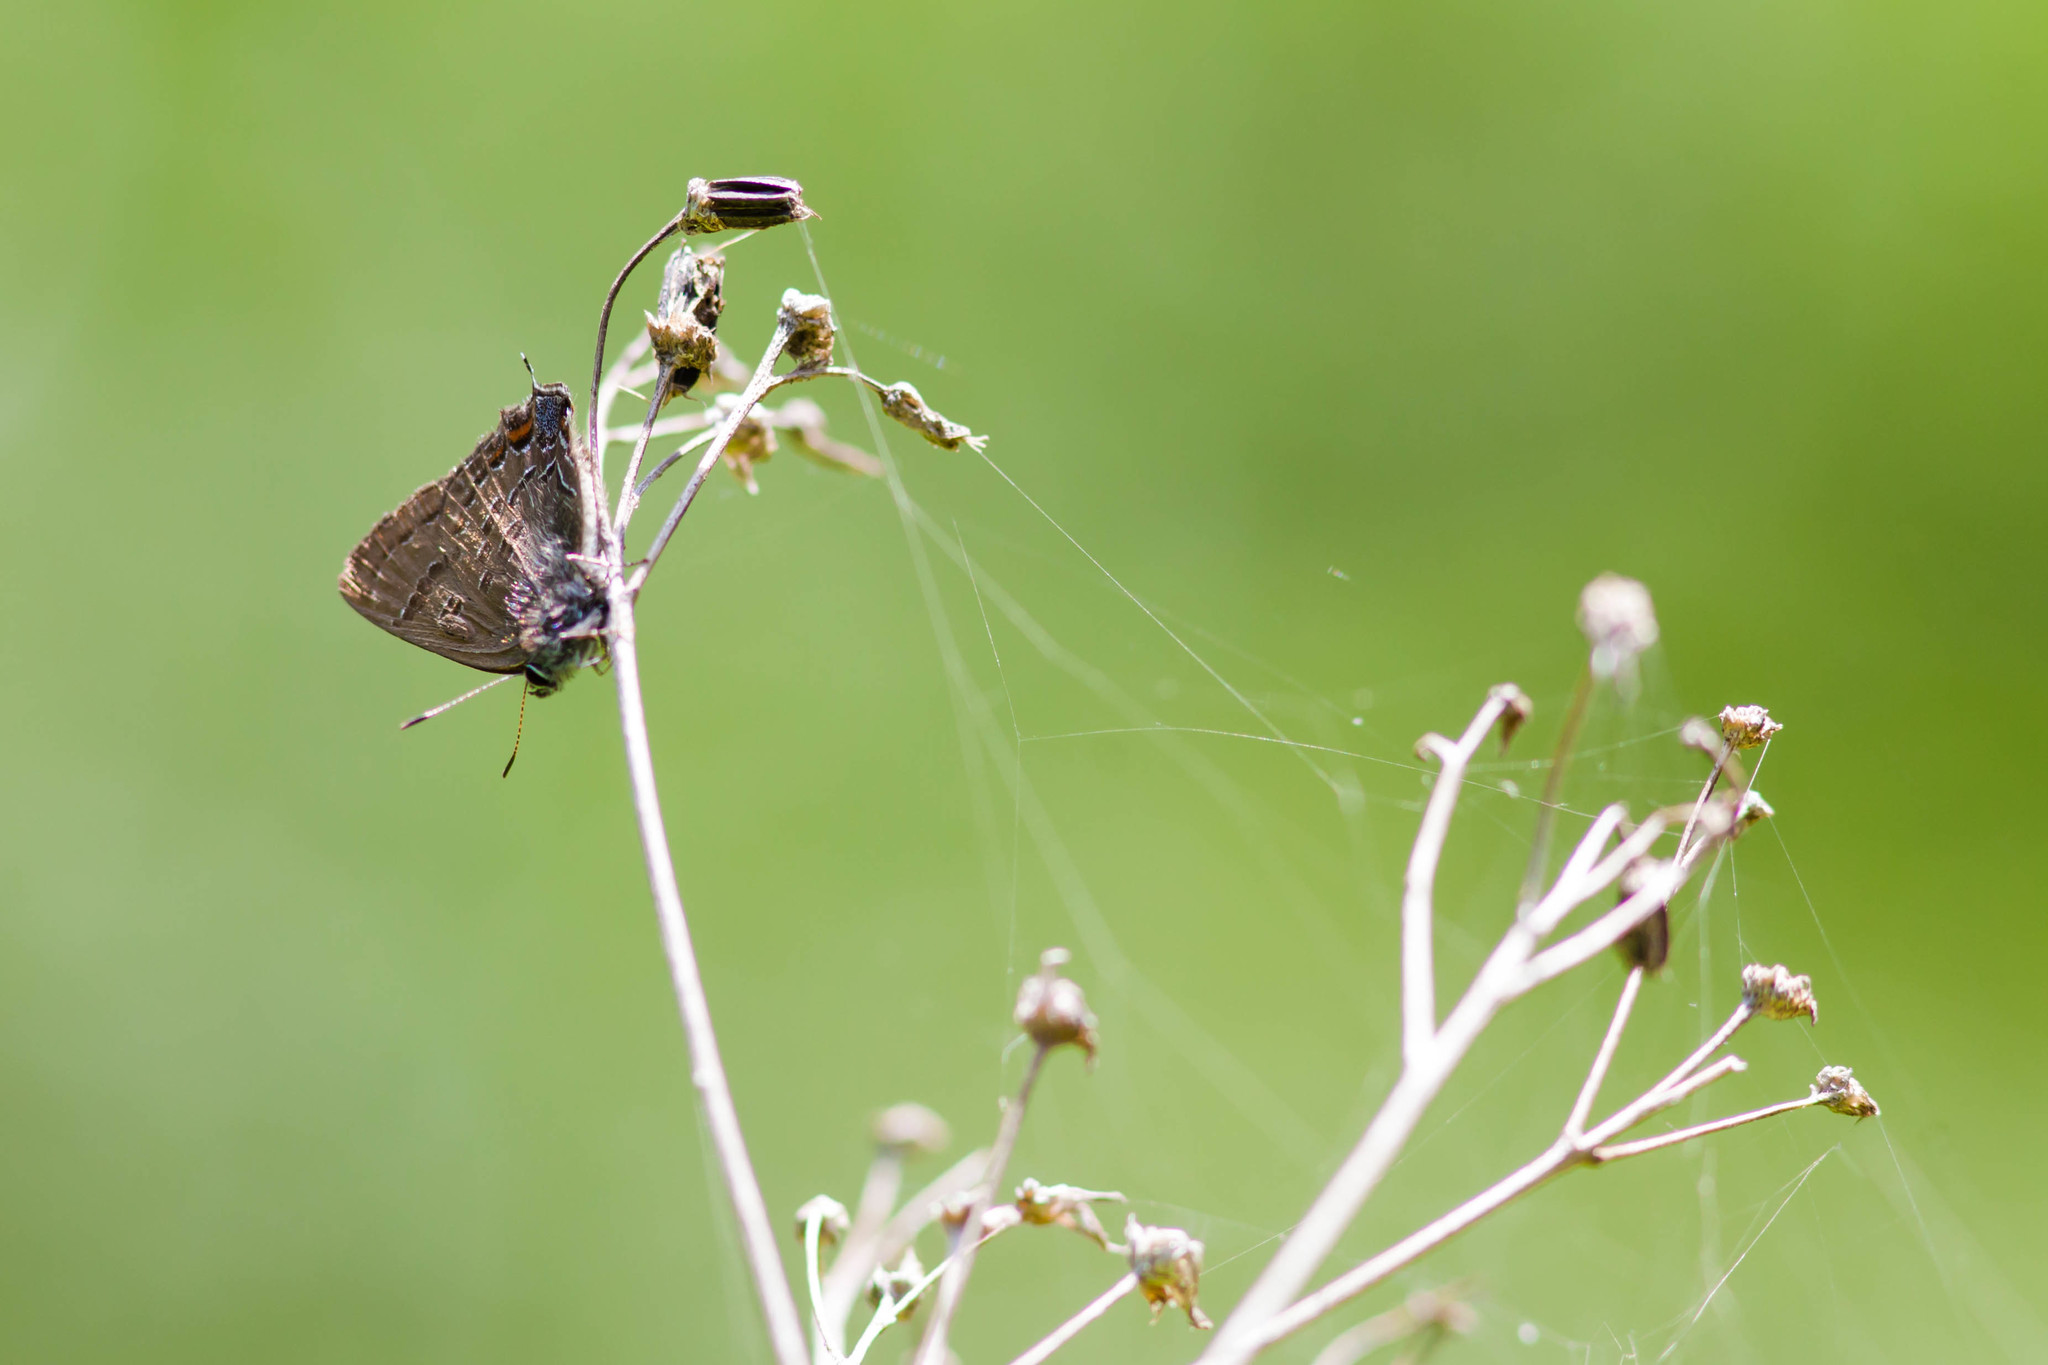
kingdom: Animalia
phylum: Arthropoda
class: Insecta
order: Lepidoptera
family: Lycaenidae
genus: Satyrium
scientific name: Satyrium calanus
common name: Banded hairstreak
